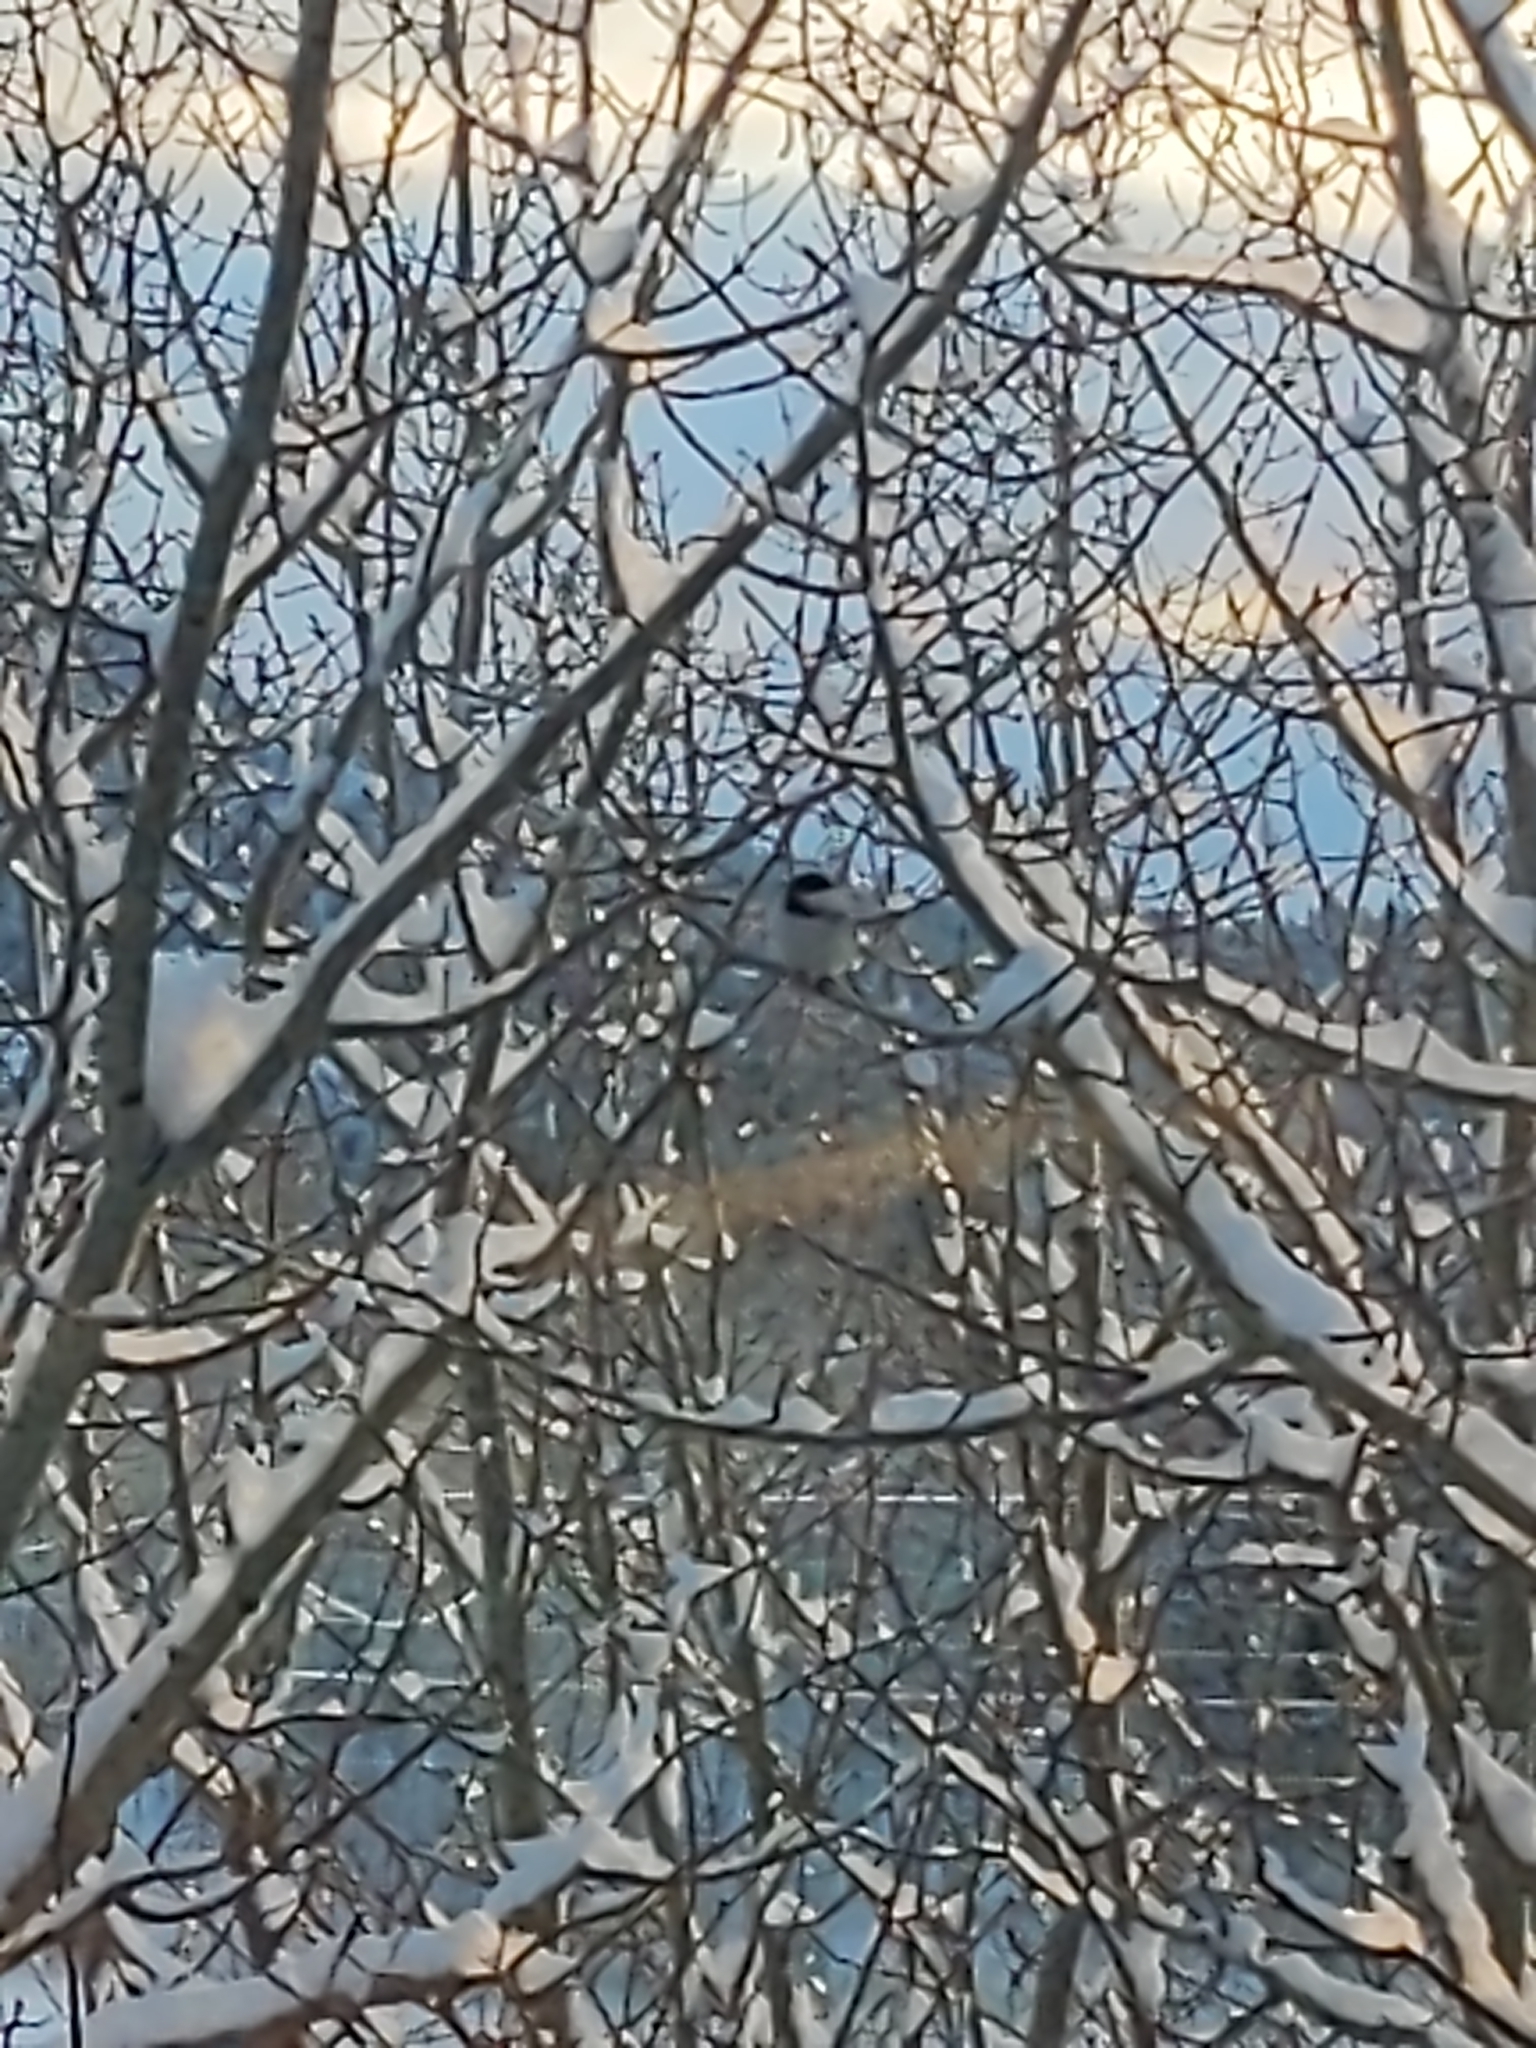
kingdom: Animalia
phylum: Chordata
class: Aves
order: Passeriformes
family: Paridae
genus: Poecile
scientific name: Poecile atricapillus
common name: Black-capped chickadee
